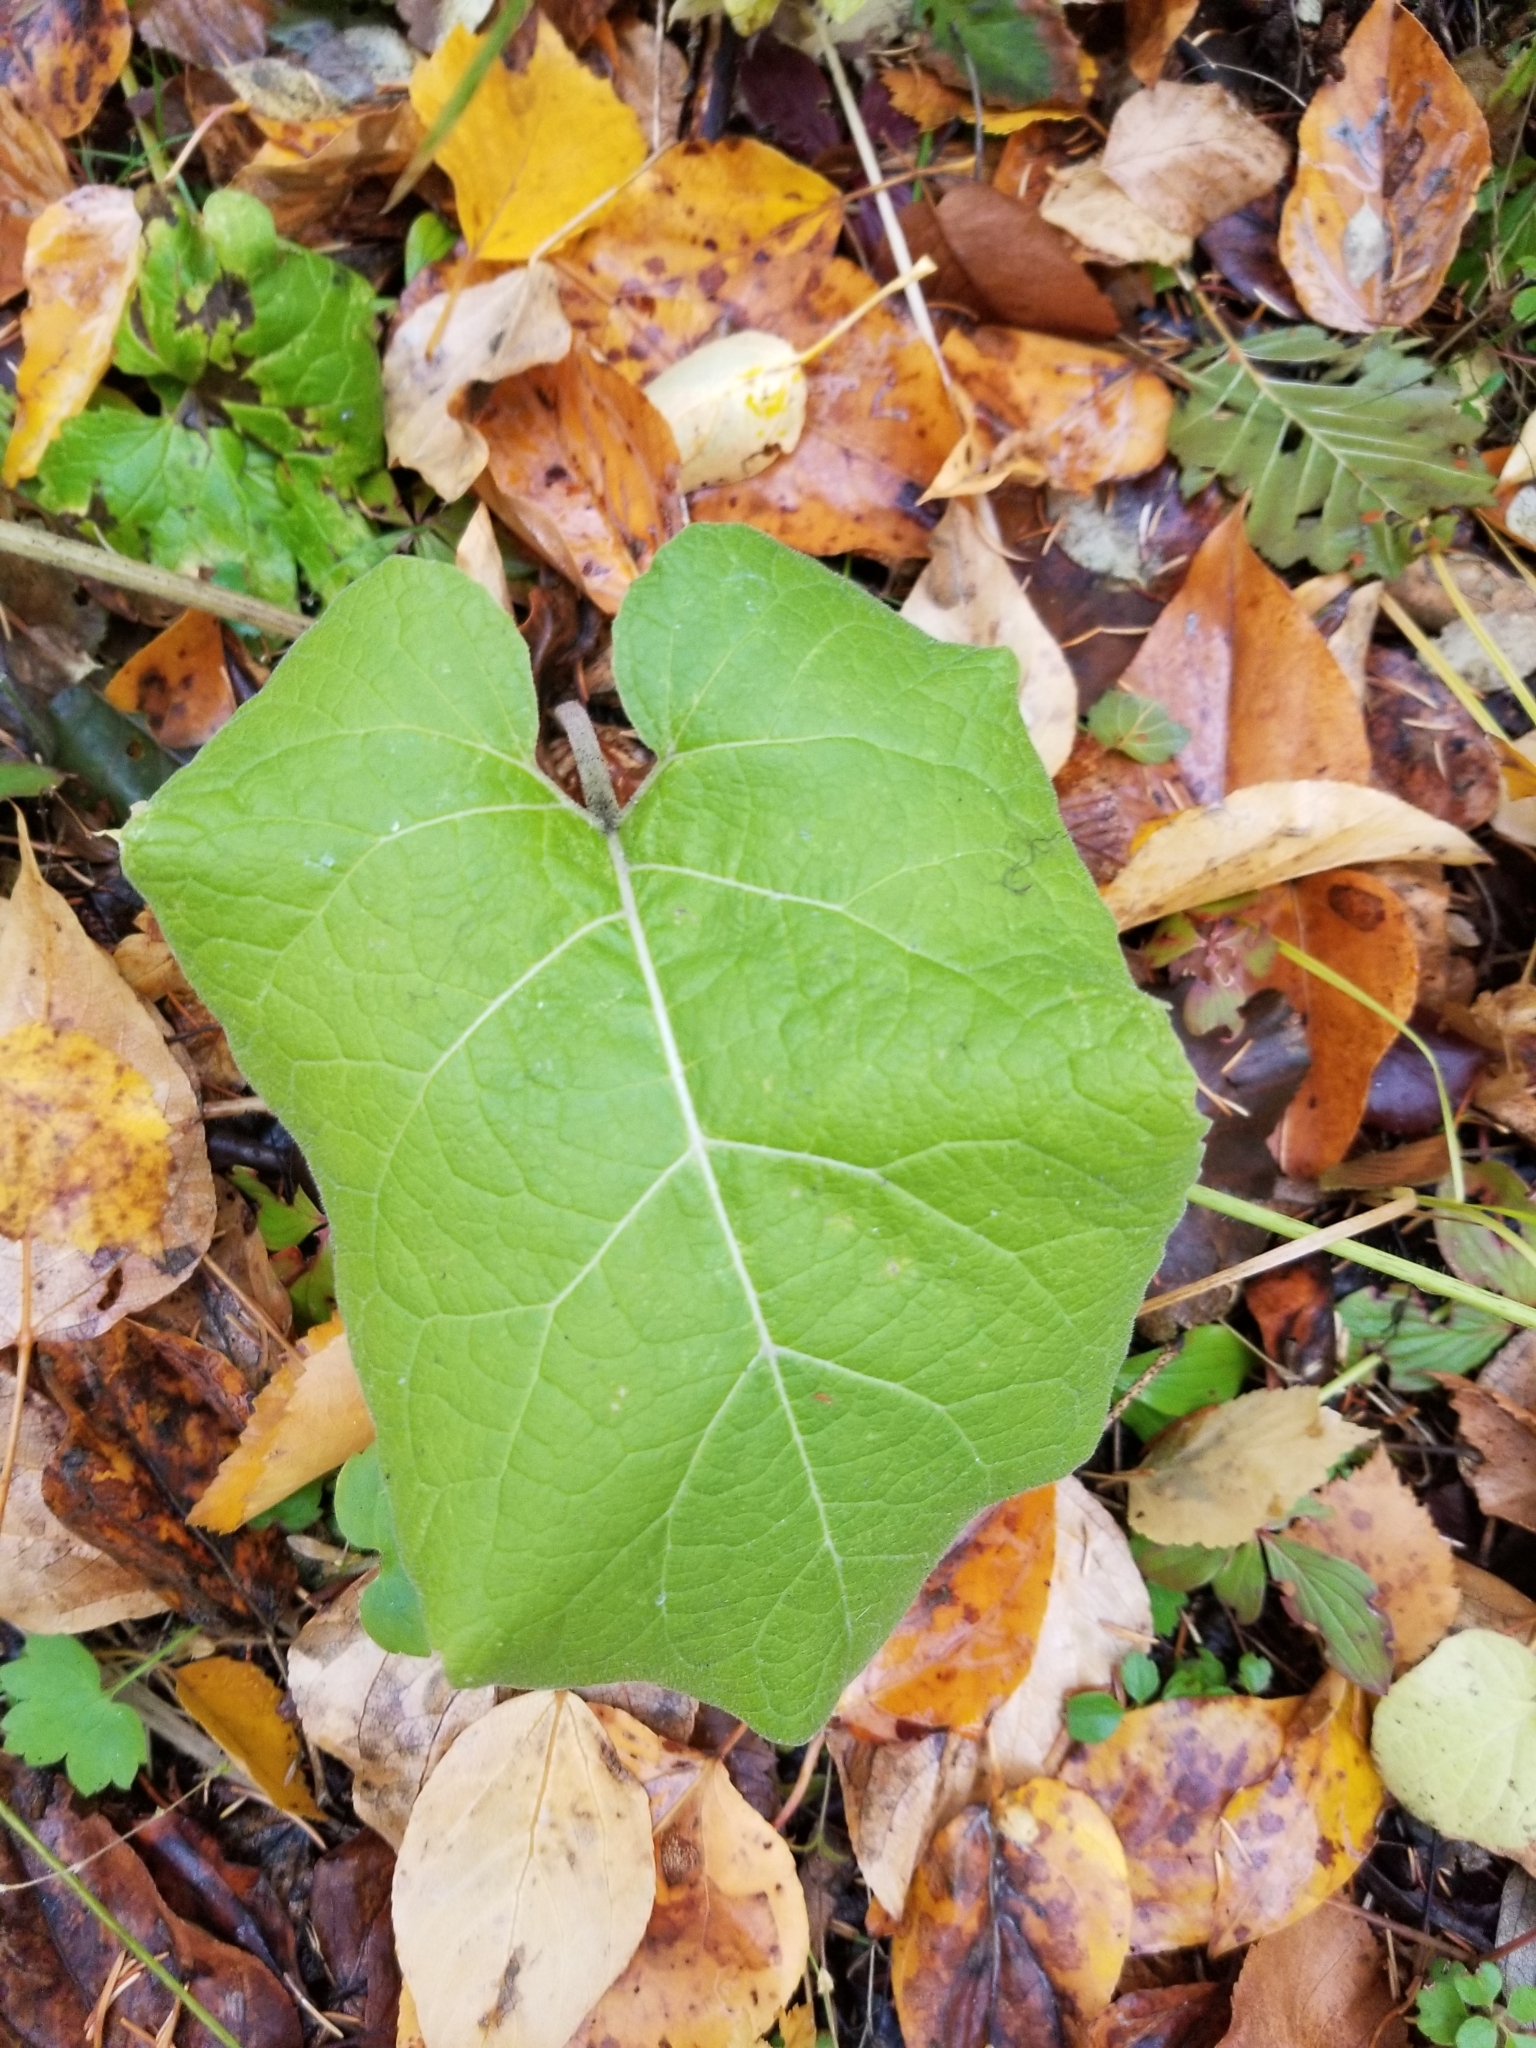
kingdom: Plantae
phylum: Tracheophyta
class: Magnoliopsida
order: Asterales
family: Asteraceae
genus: Arctium
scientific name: Arctium
